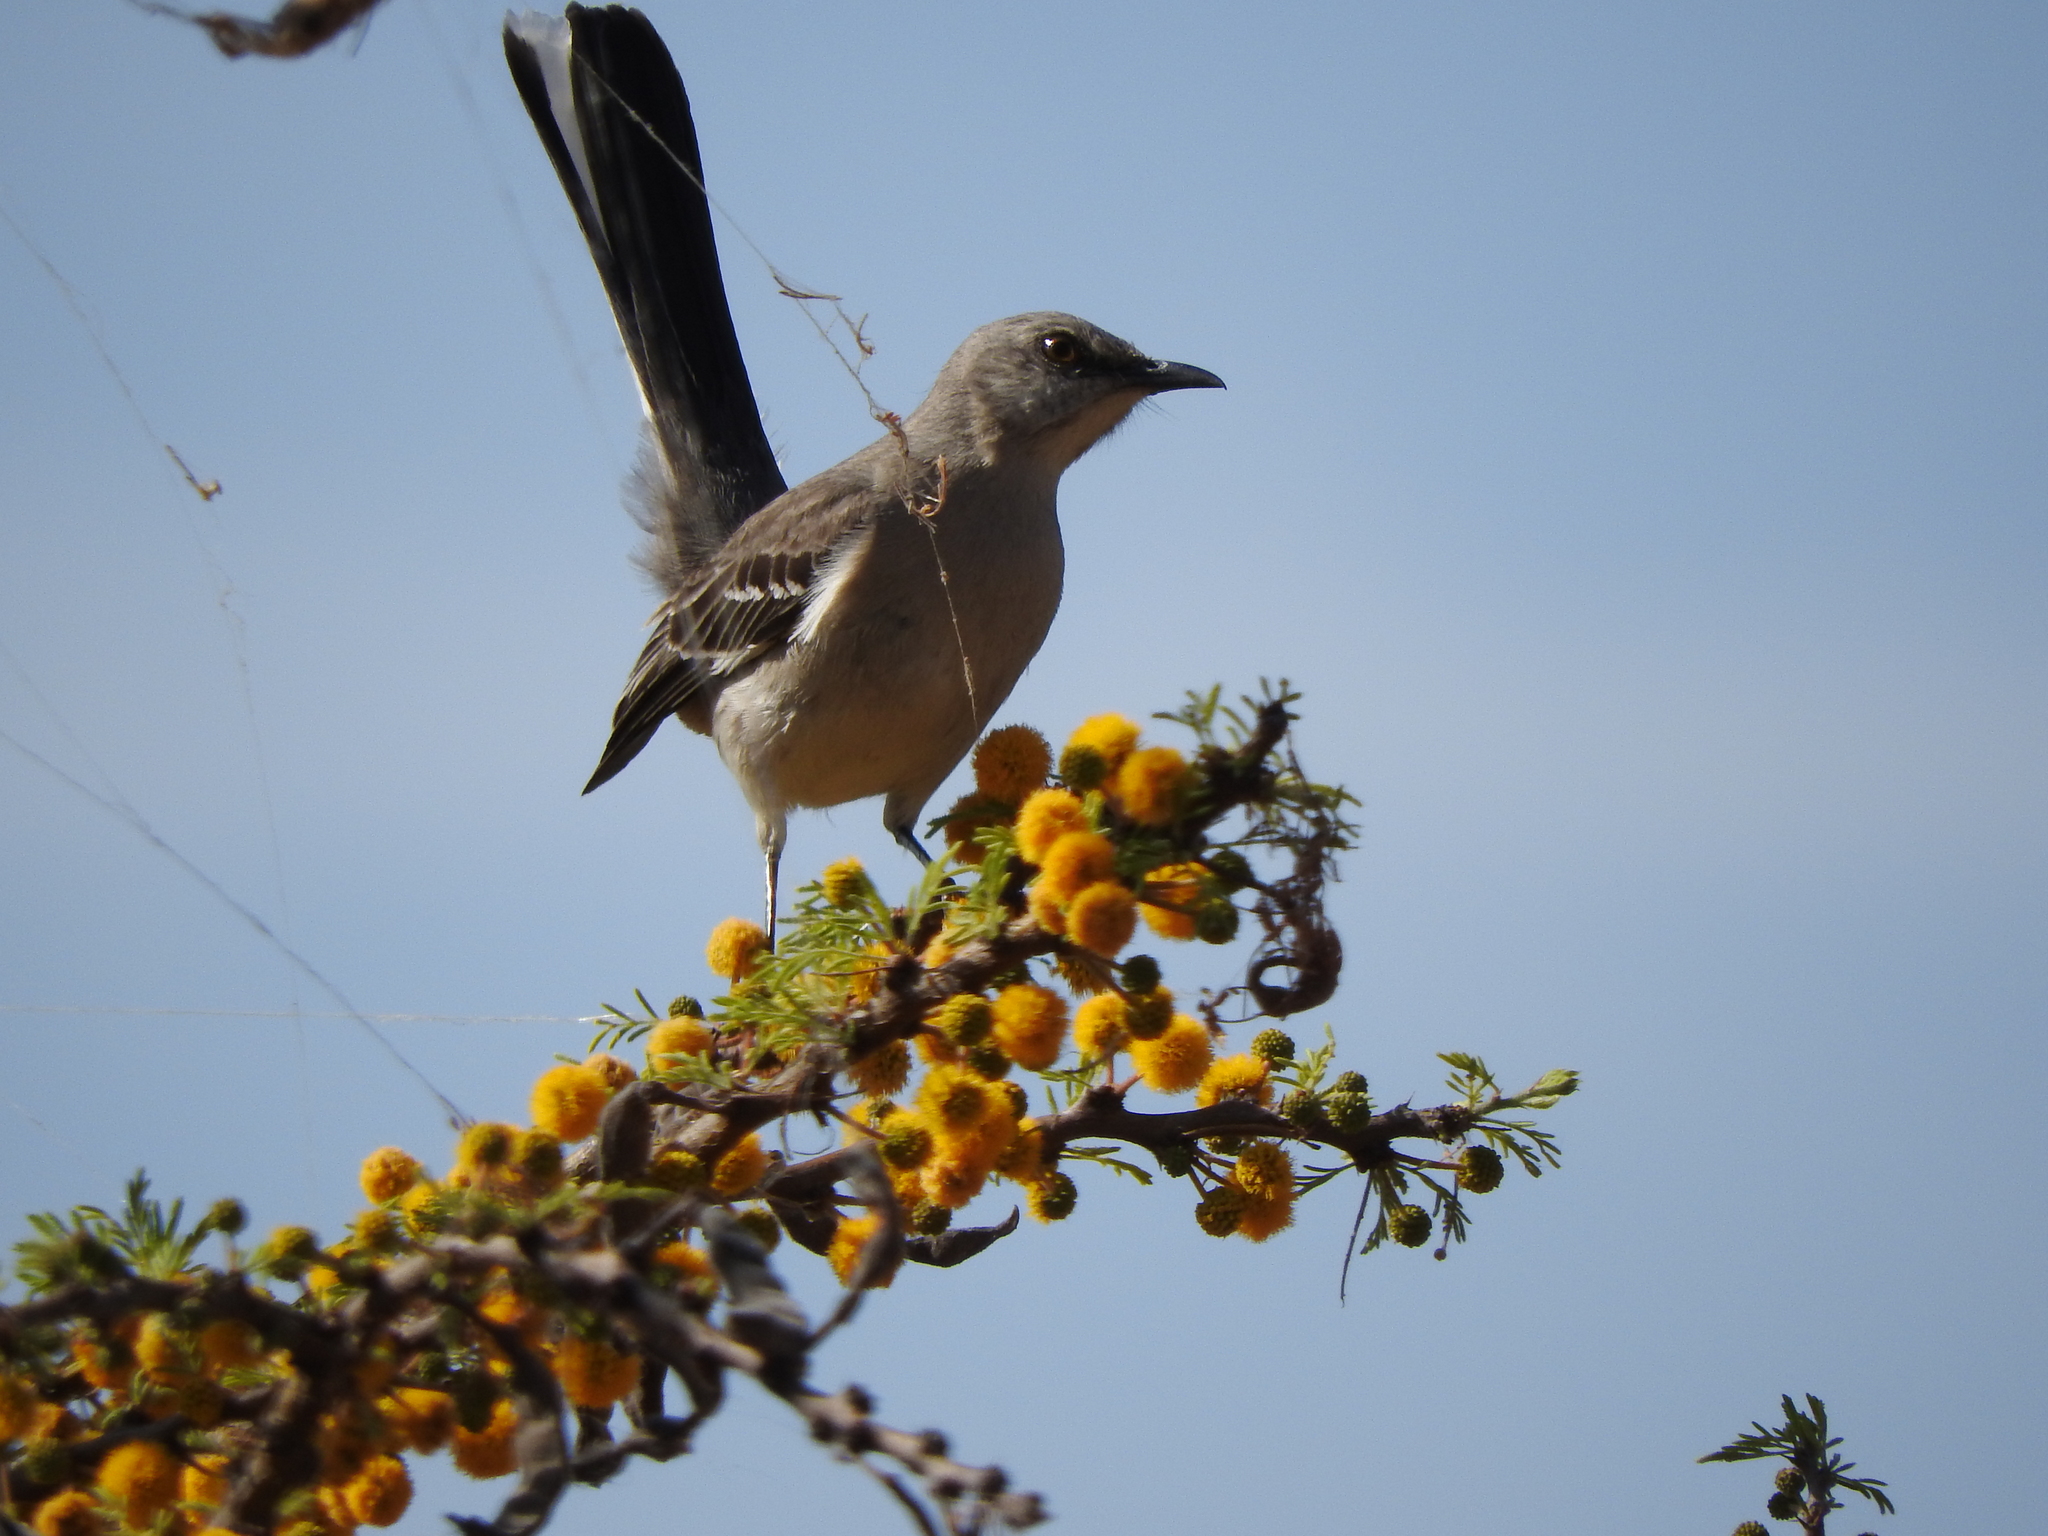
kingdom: Animalia
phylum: Chordata
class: Aves
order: Passeriformes
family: Mimidae
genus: Mimus
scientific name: Mimus polyglottos
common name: Northern mockingbird
